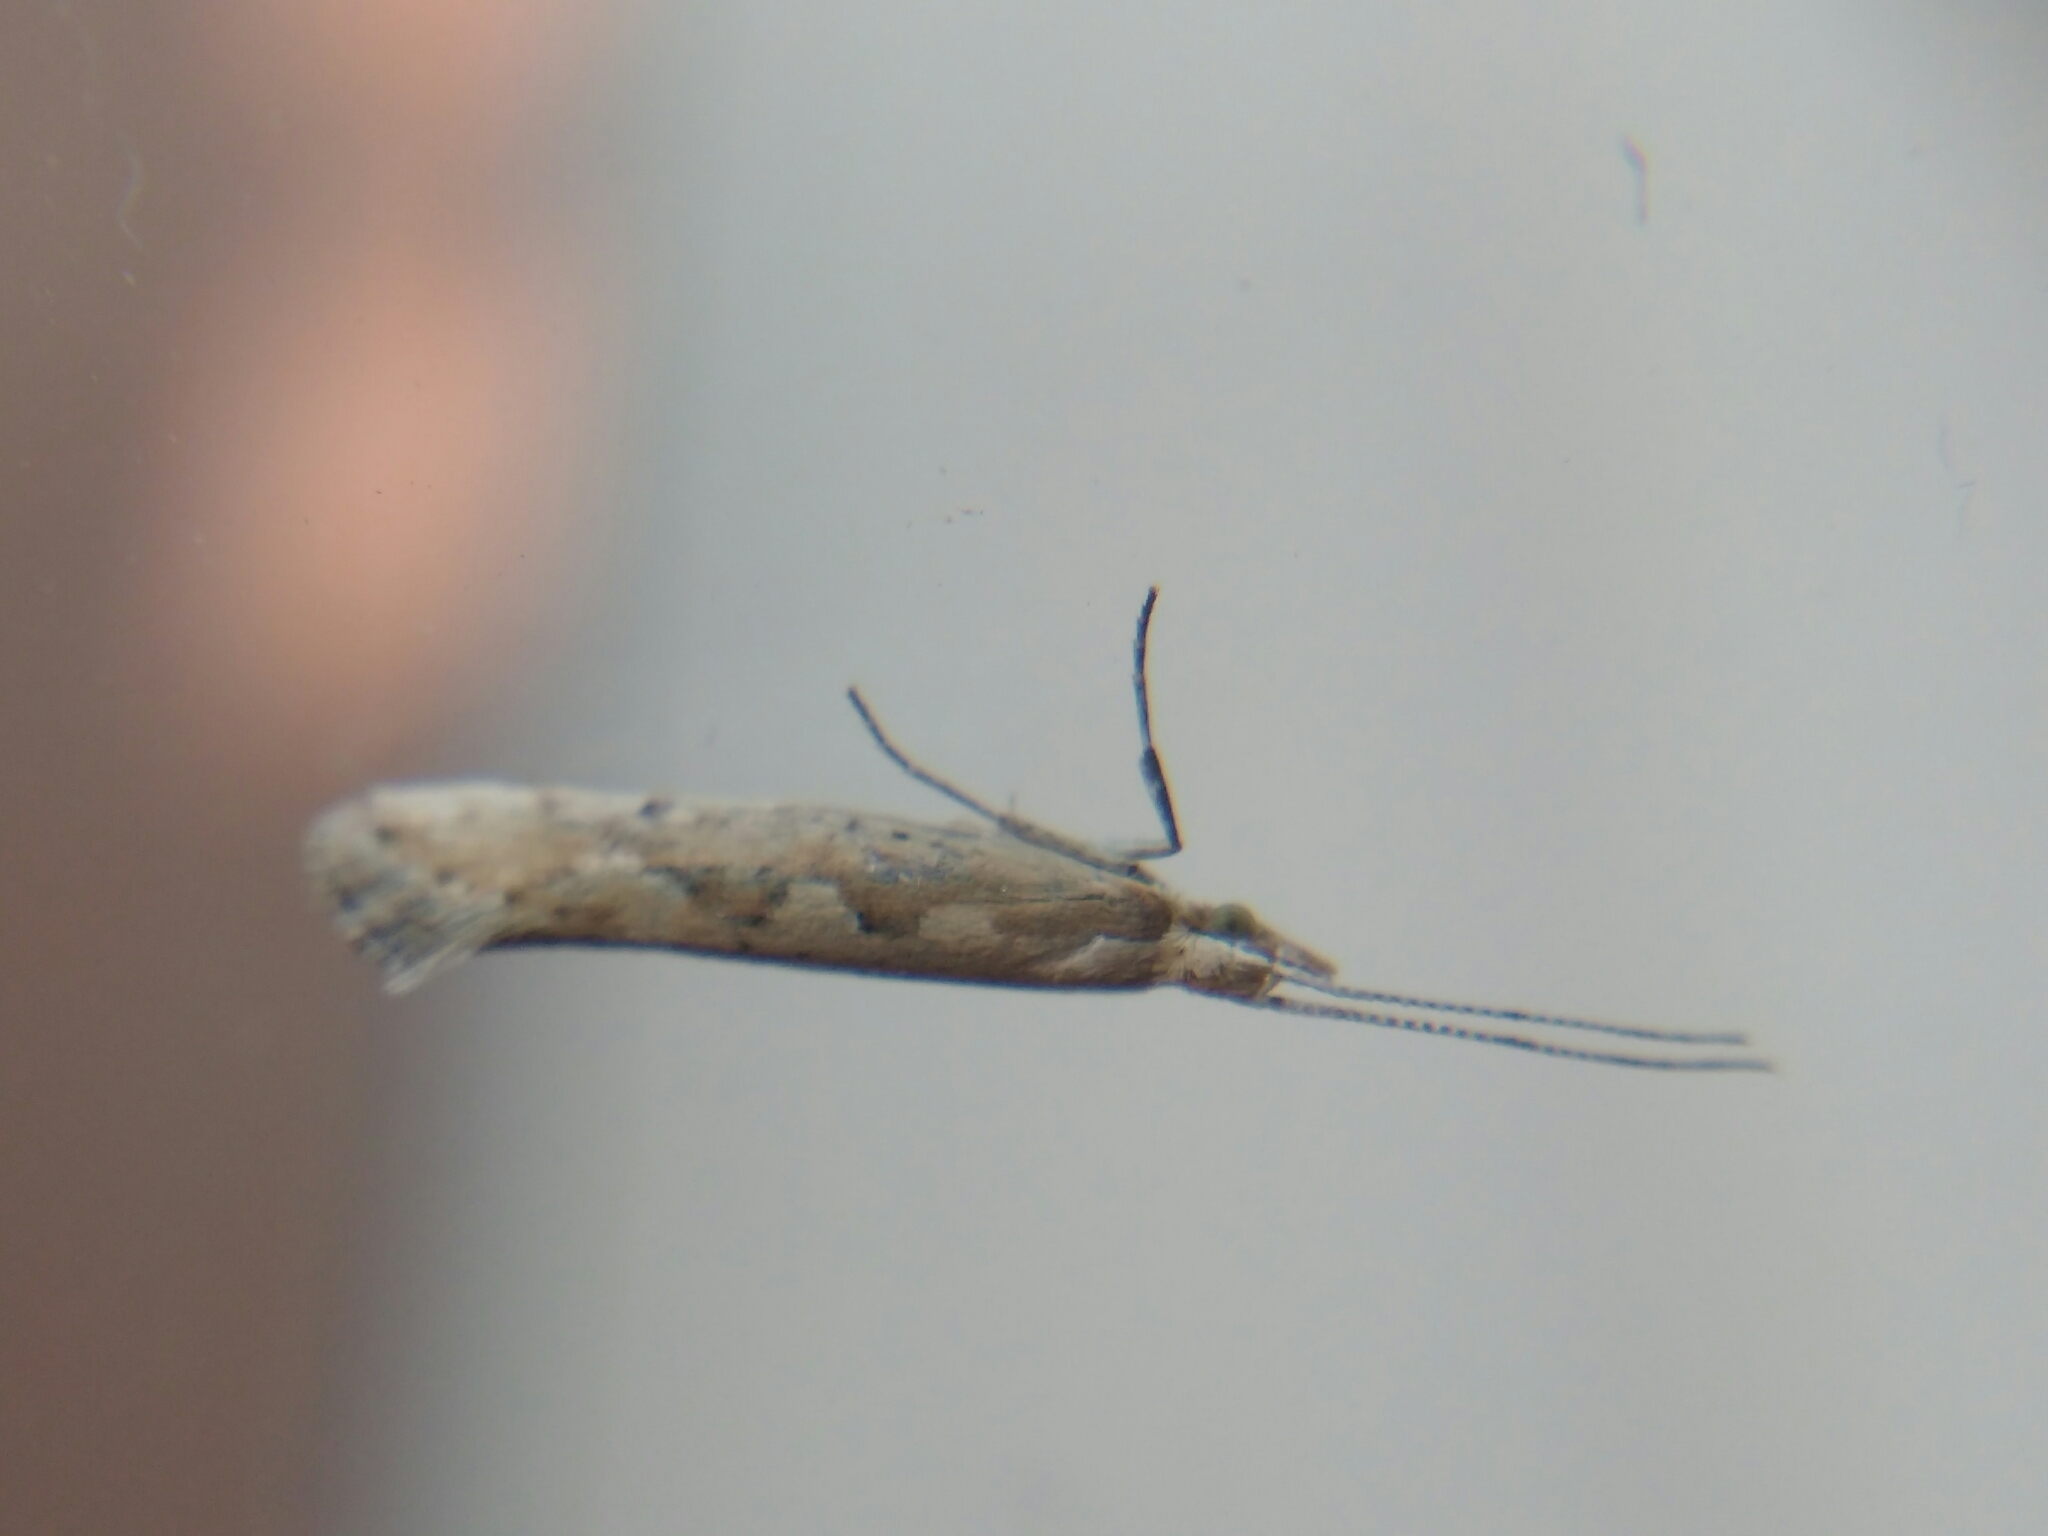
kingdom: Animalia
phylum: Arthropoda
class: Insecta
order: Lepidoptera
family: Plutellidae
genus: Plutella
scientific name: Plutella xylostella
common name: Diamond-back moth
